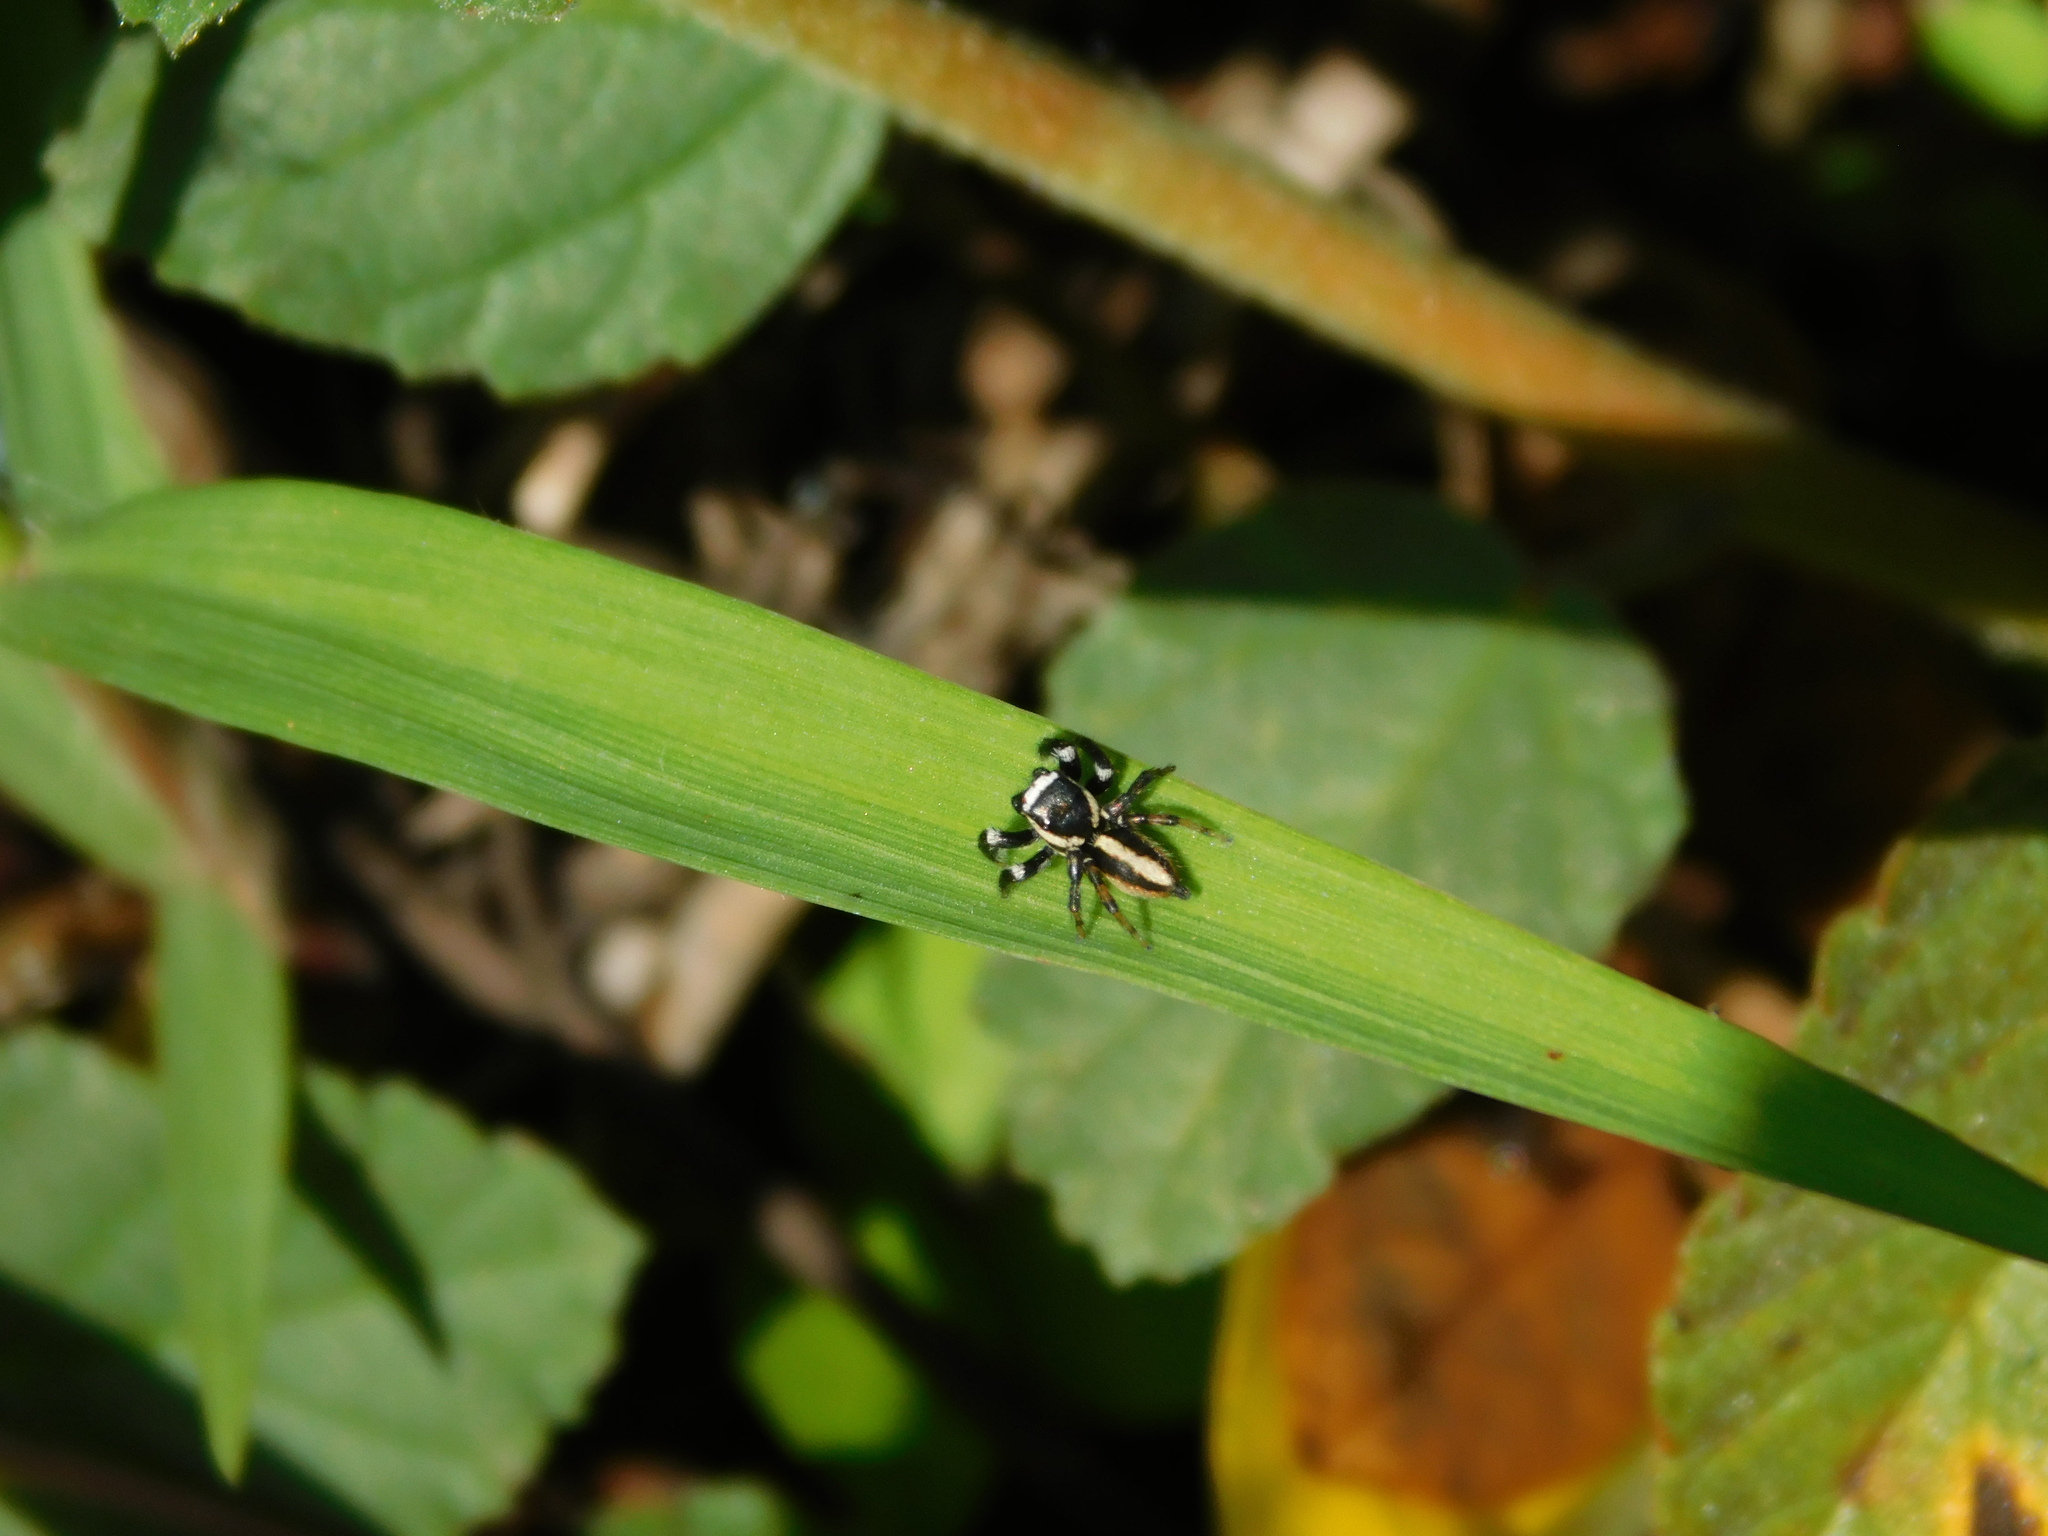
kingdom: Animalia
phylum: Arthropoda
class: Arachnida
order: Araneae
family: Salticidae
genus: Carrhotus
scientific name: Carrhotus viduus
